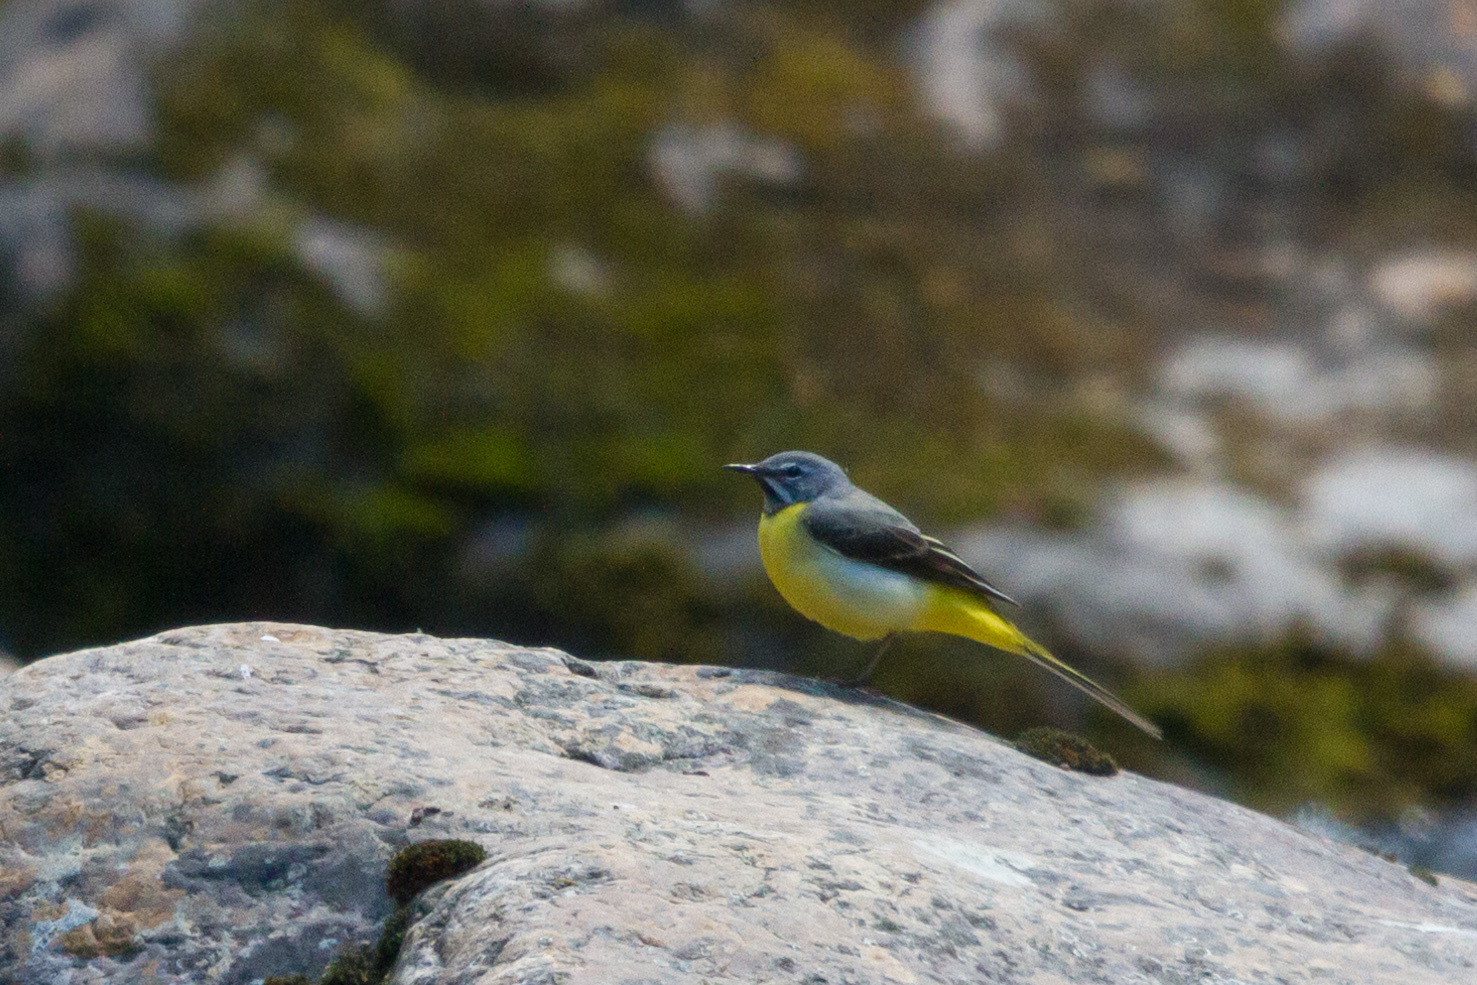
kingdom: Animalia
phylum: Chordata
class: Aves
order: Passeriformes
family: Motacillidae
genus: Motacilla
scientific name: Motacilla cinerea
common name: Grey wagtail
